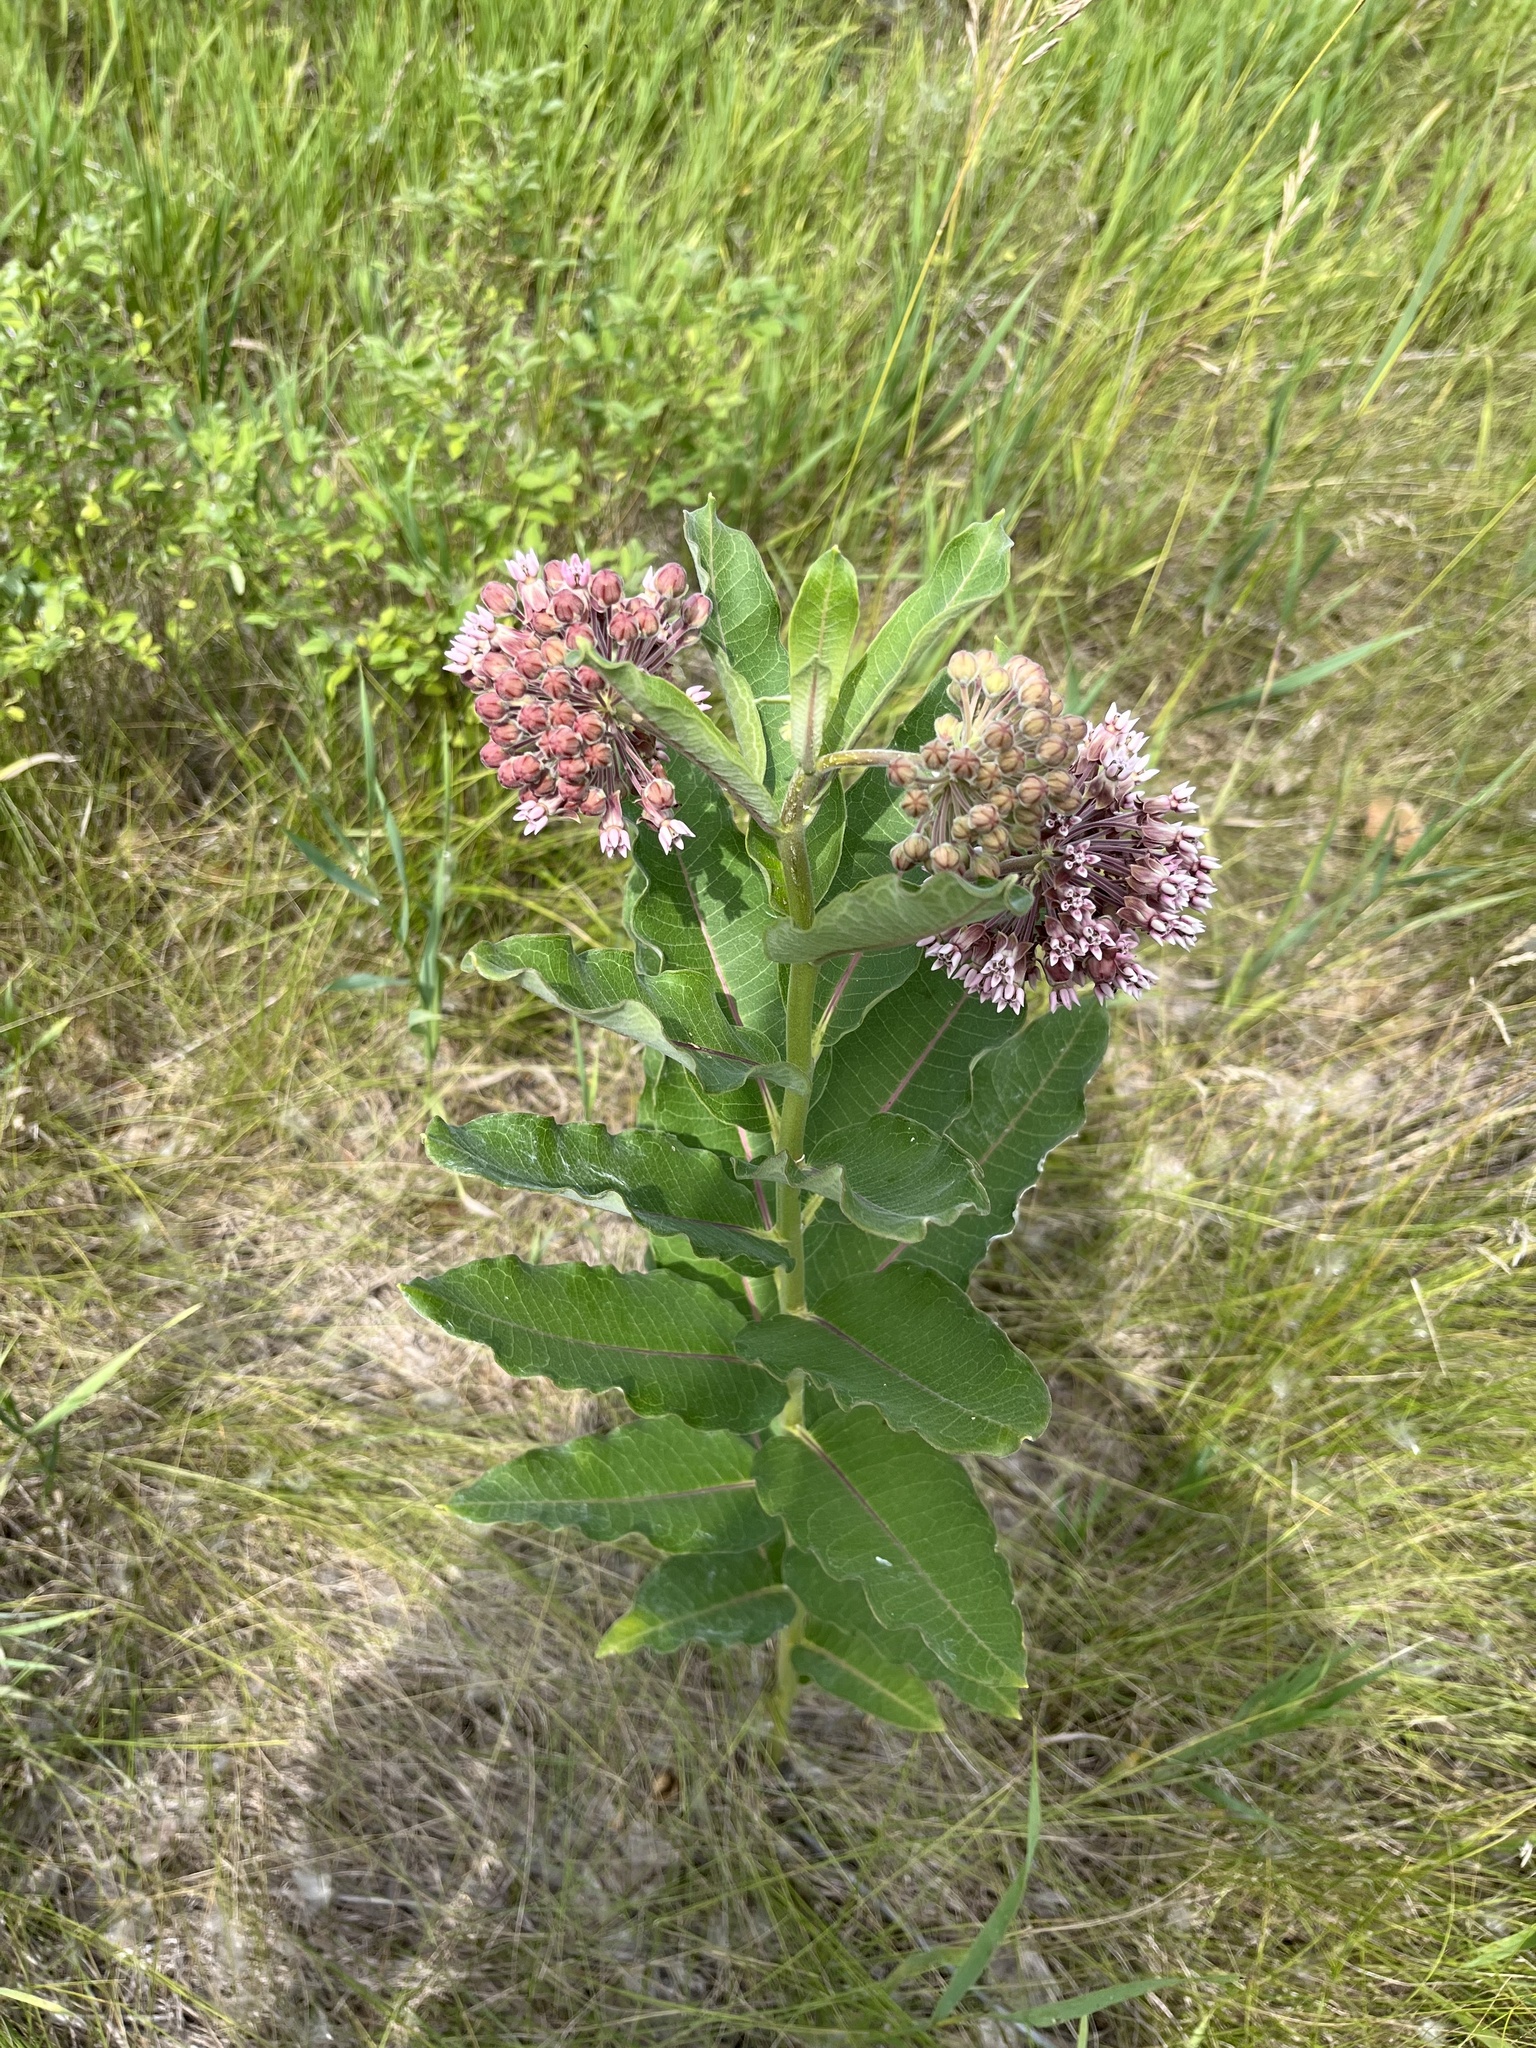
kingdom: Plantae
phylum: Tracheophyta
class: Magnoliopsida
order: Gentianales
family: Apocynaceae
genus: Asclepias
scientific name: Asclepias syriaca
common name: Common milkweed
